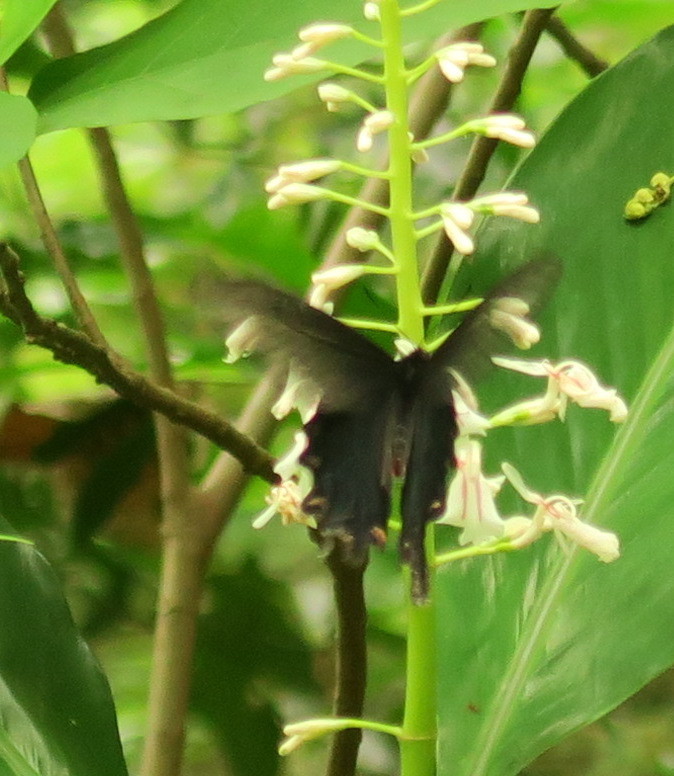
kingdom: Animalia
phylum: Arthropoda
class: Insecta
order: Lepidoptera
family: Papilionidae
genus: Byasa
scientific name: Byasa alcinous
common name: Chinese windmill
